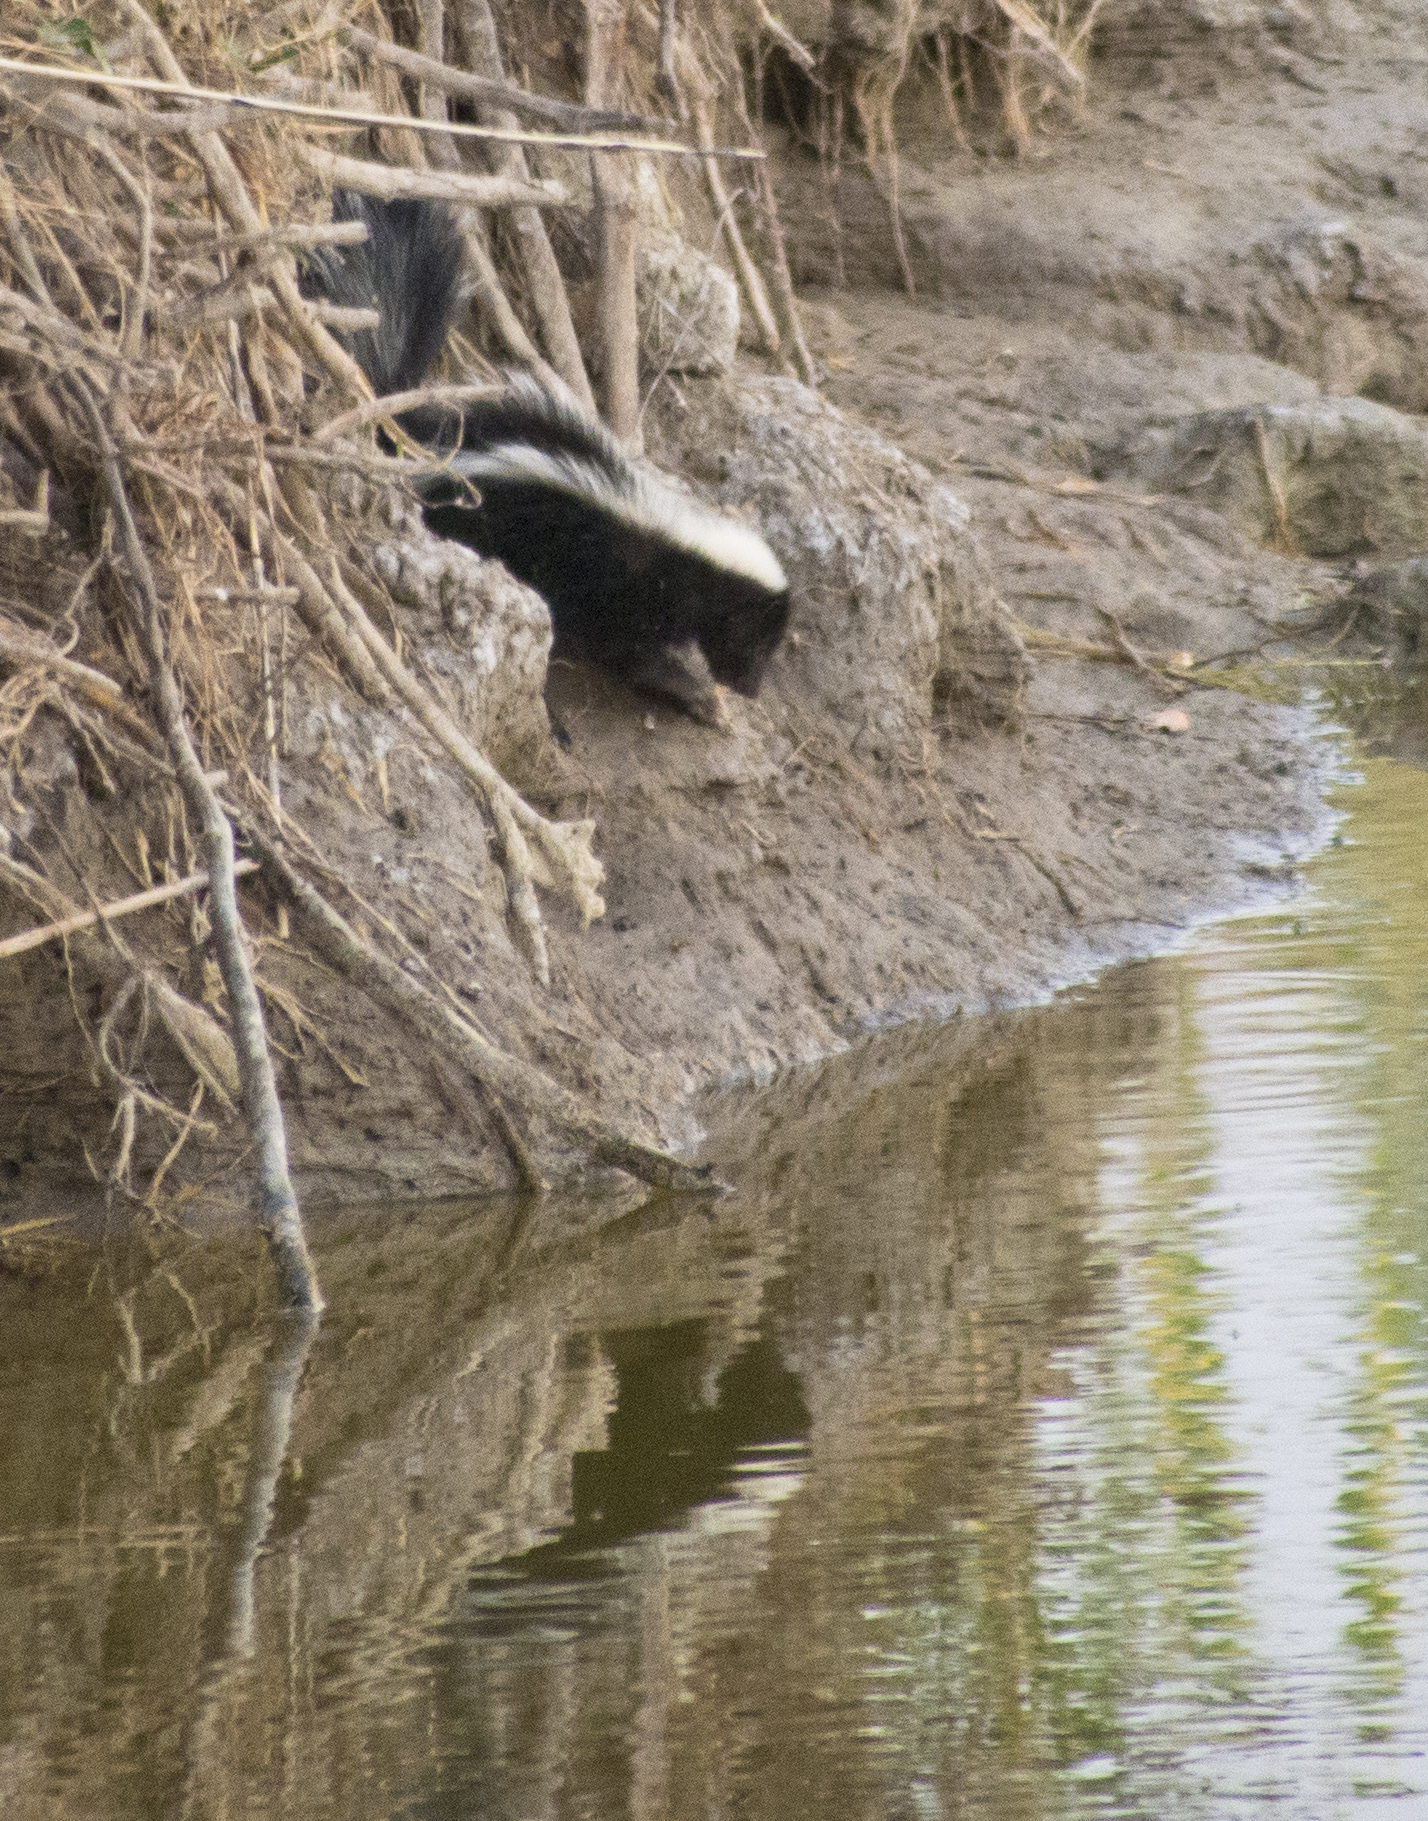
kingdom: Animalia
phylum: Chordata
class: Mammalia
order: Carnivora
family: Mephitidae
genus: Mephitis
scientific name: Mephitis mephitis
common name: Striped skunk
